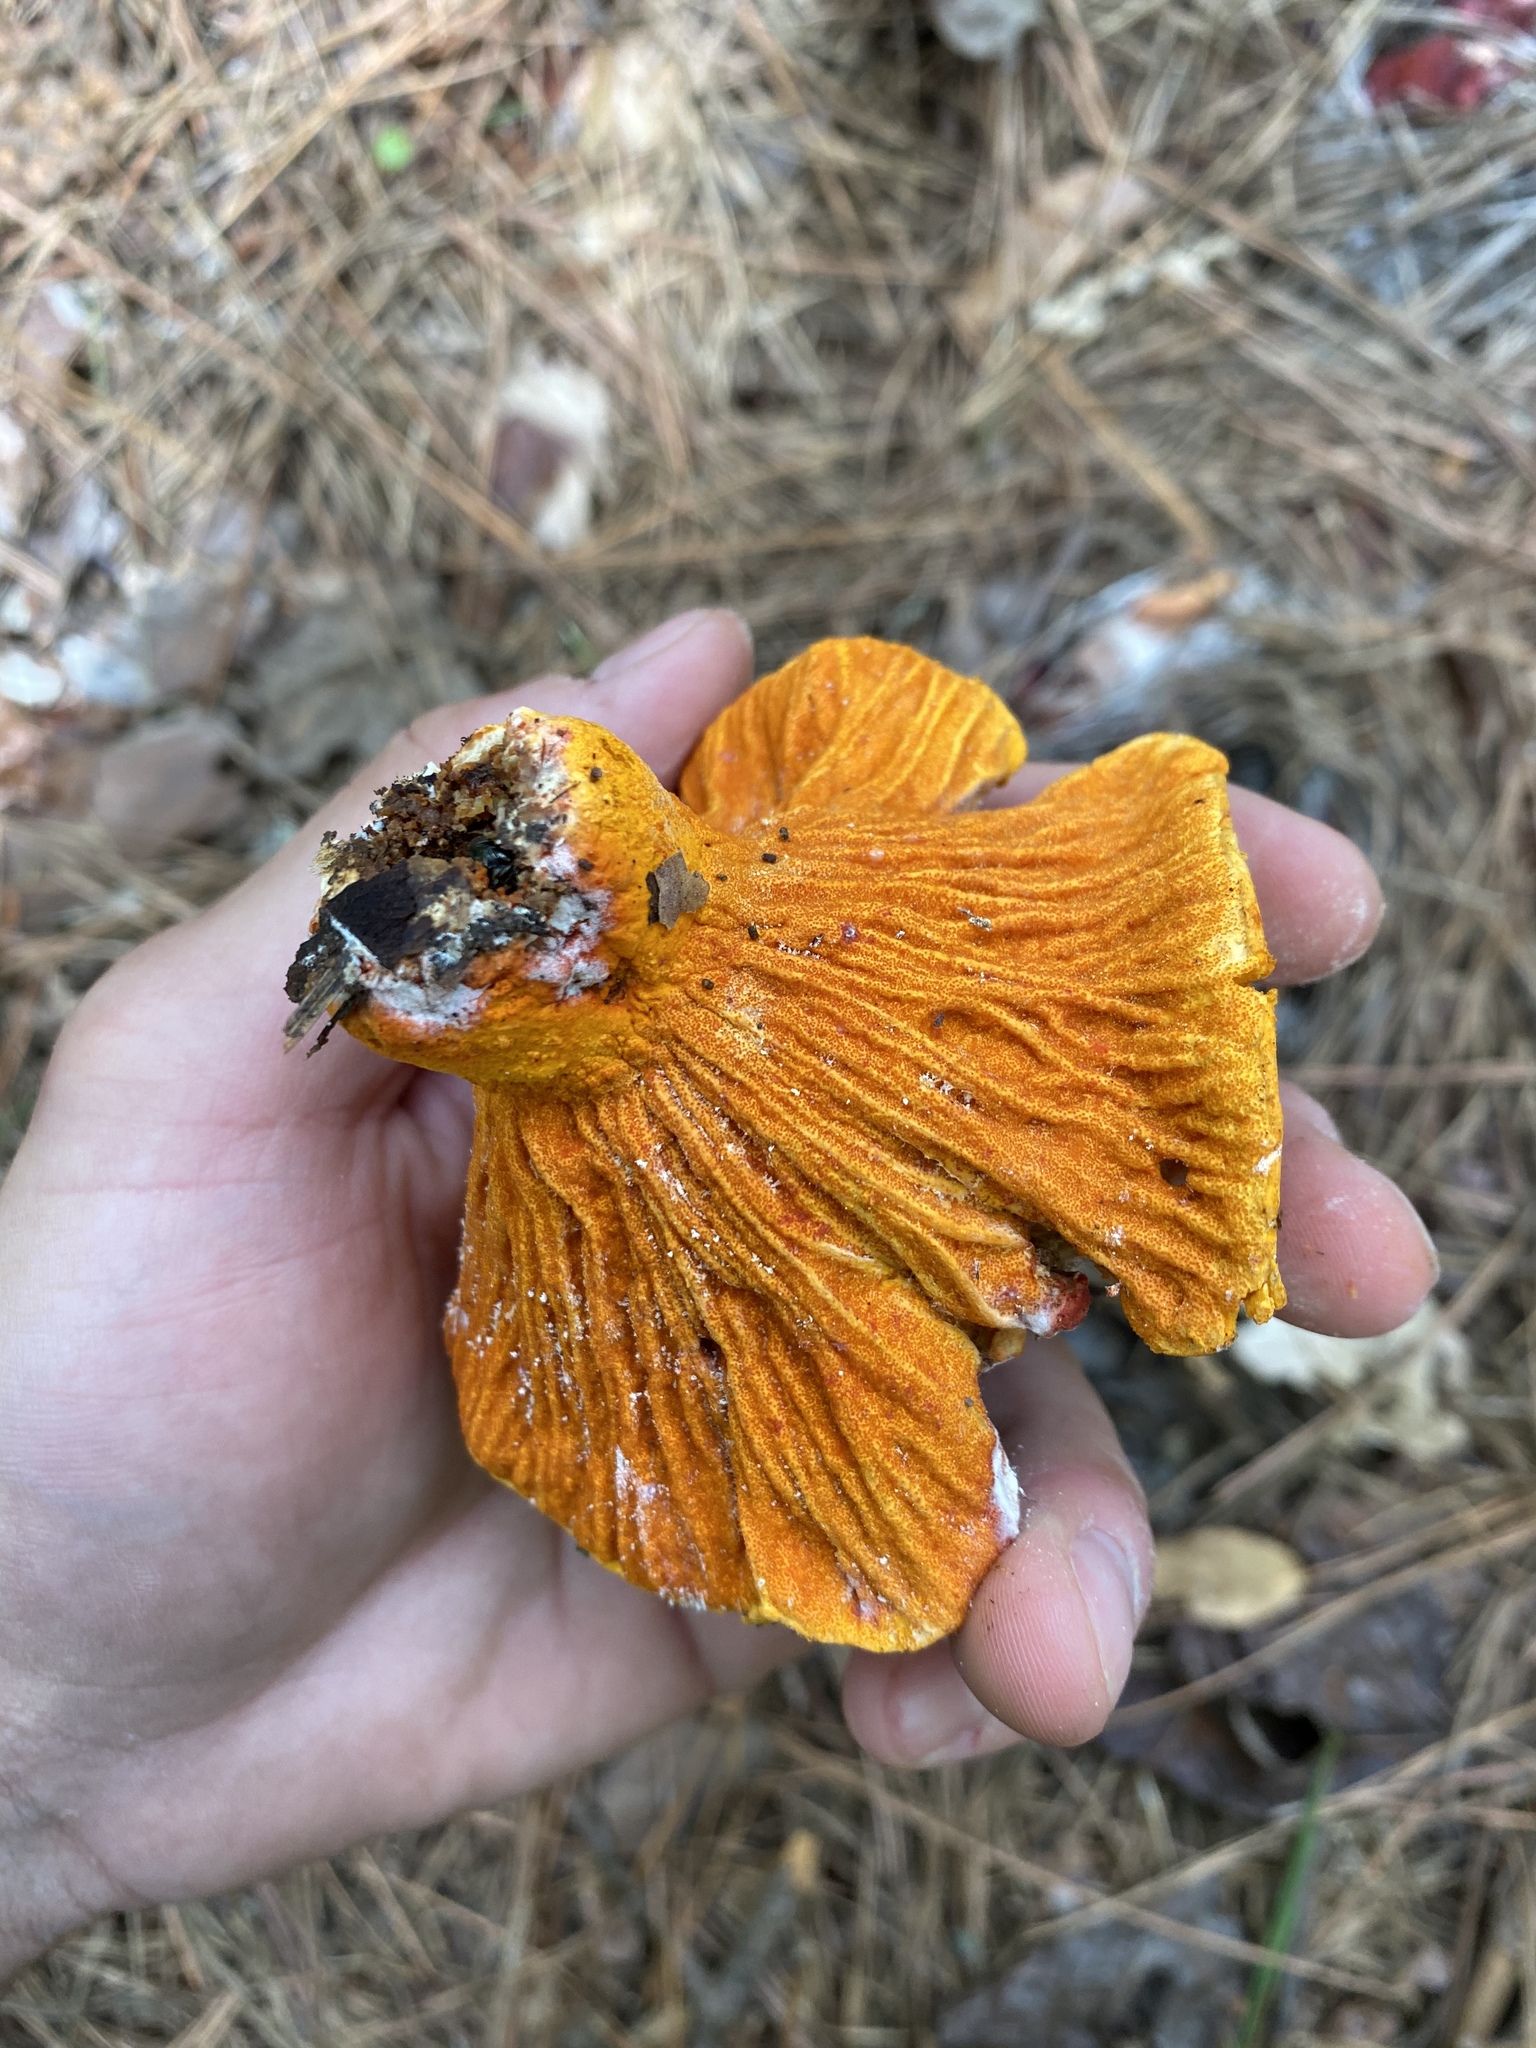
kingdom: Fungi
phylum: Ascomycota
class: Sordariomycetes
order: Hypocreales
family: Hypocreaceae
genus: Hypomyces
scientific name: Hypomyces lactifluorum
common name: Lobster mushroom
